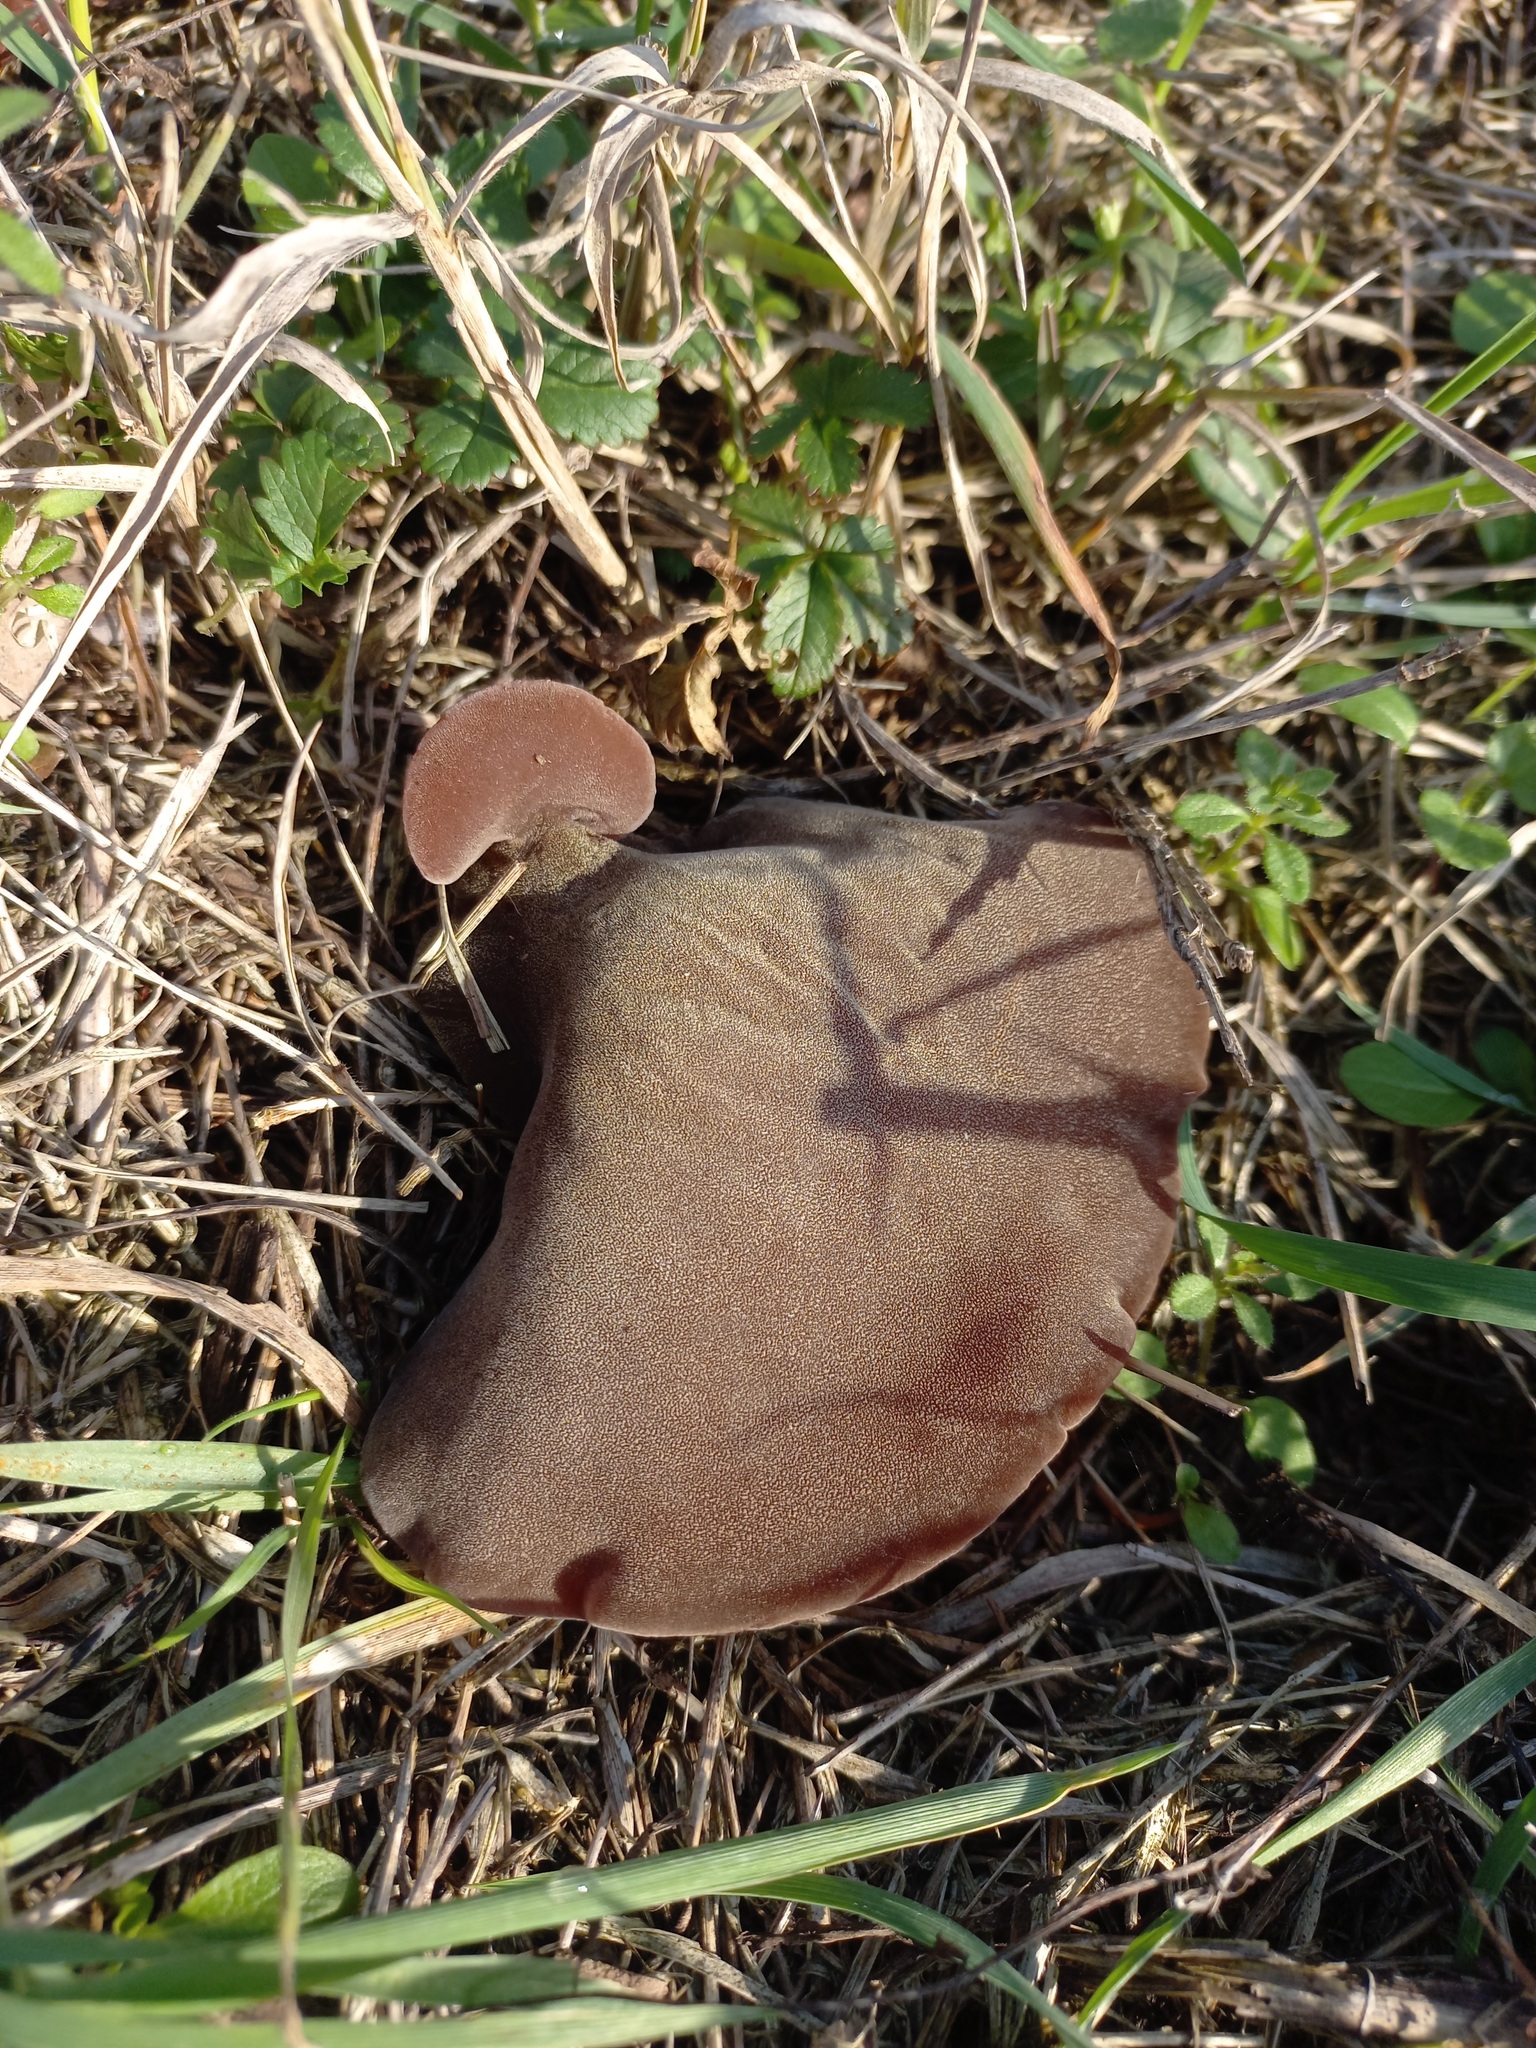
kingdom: Fungi
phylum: Basidiomycota
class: Agaricomycetes
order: Auriculariales
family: Auriculariaceae
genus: Auricularia
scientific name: Auricularia auricula-judae
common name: Jelly ear
